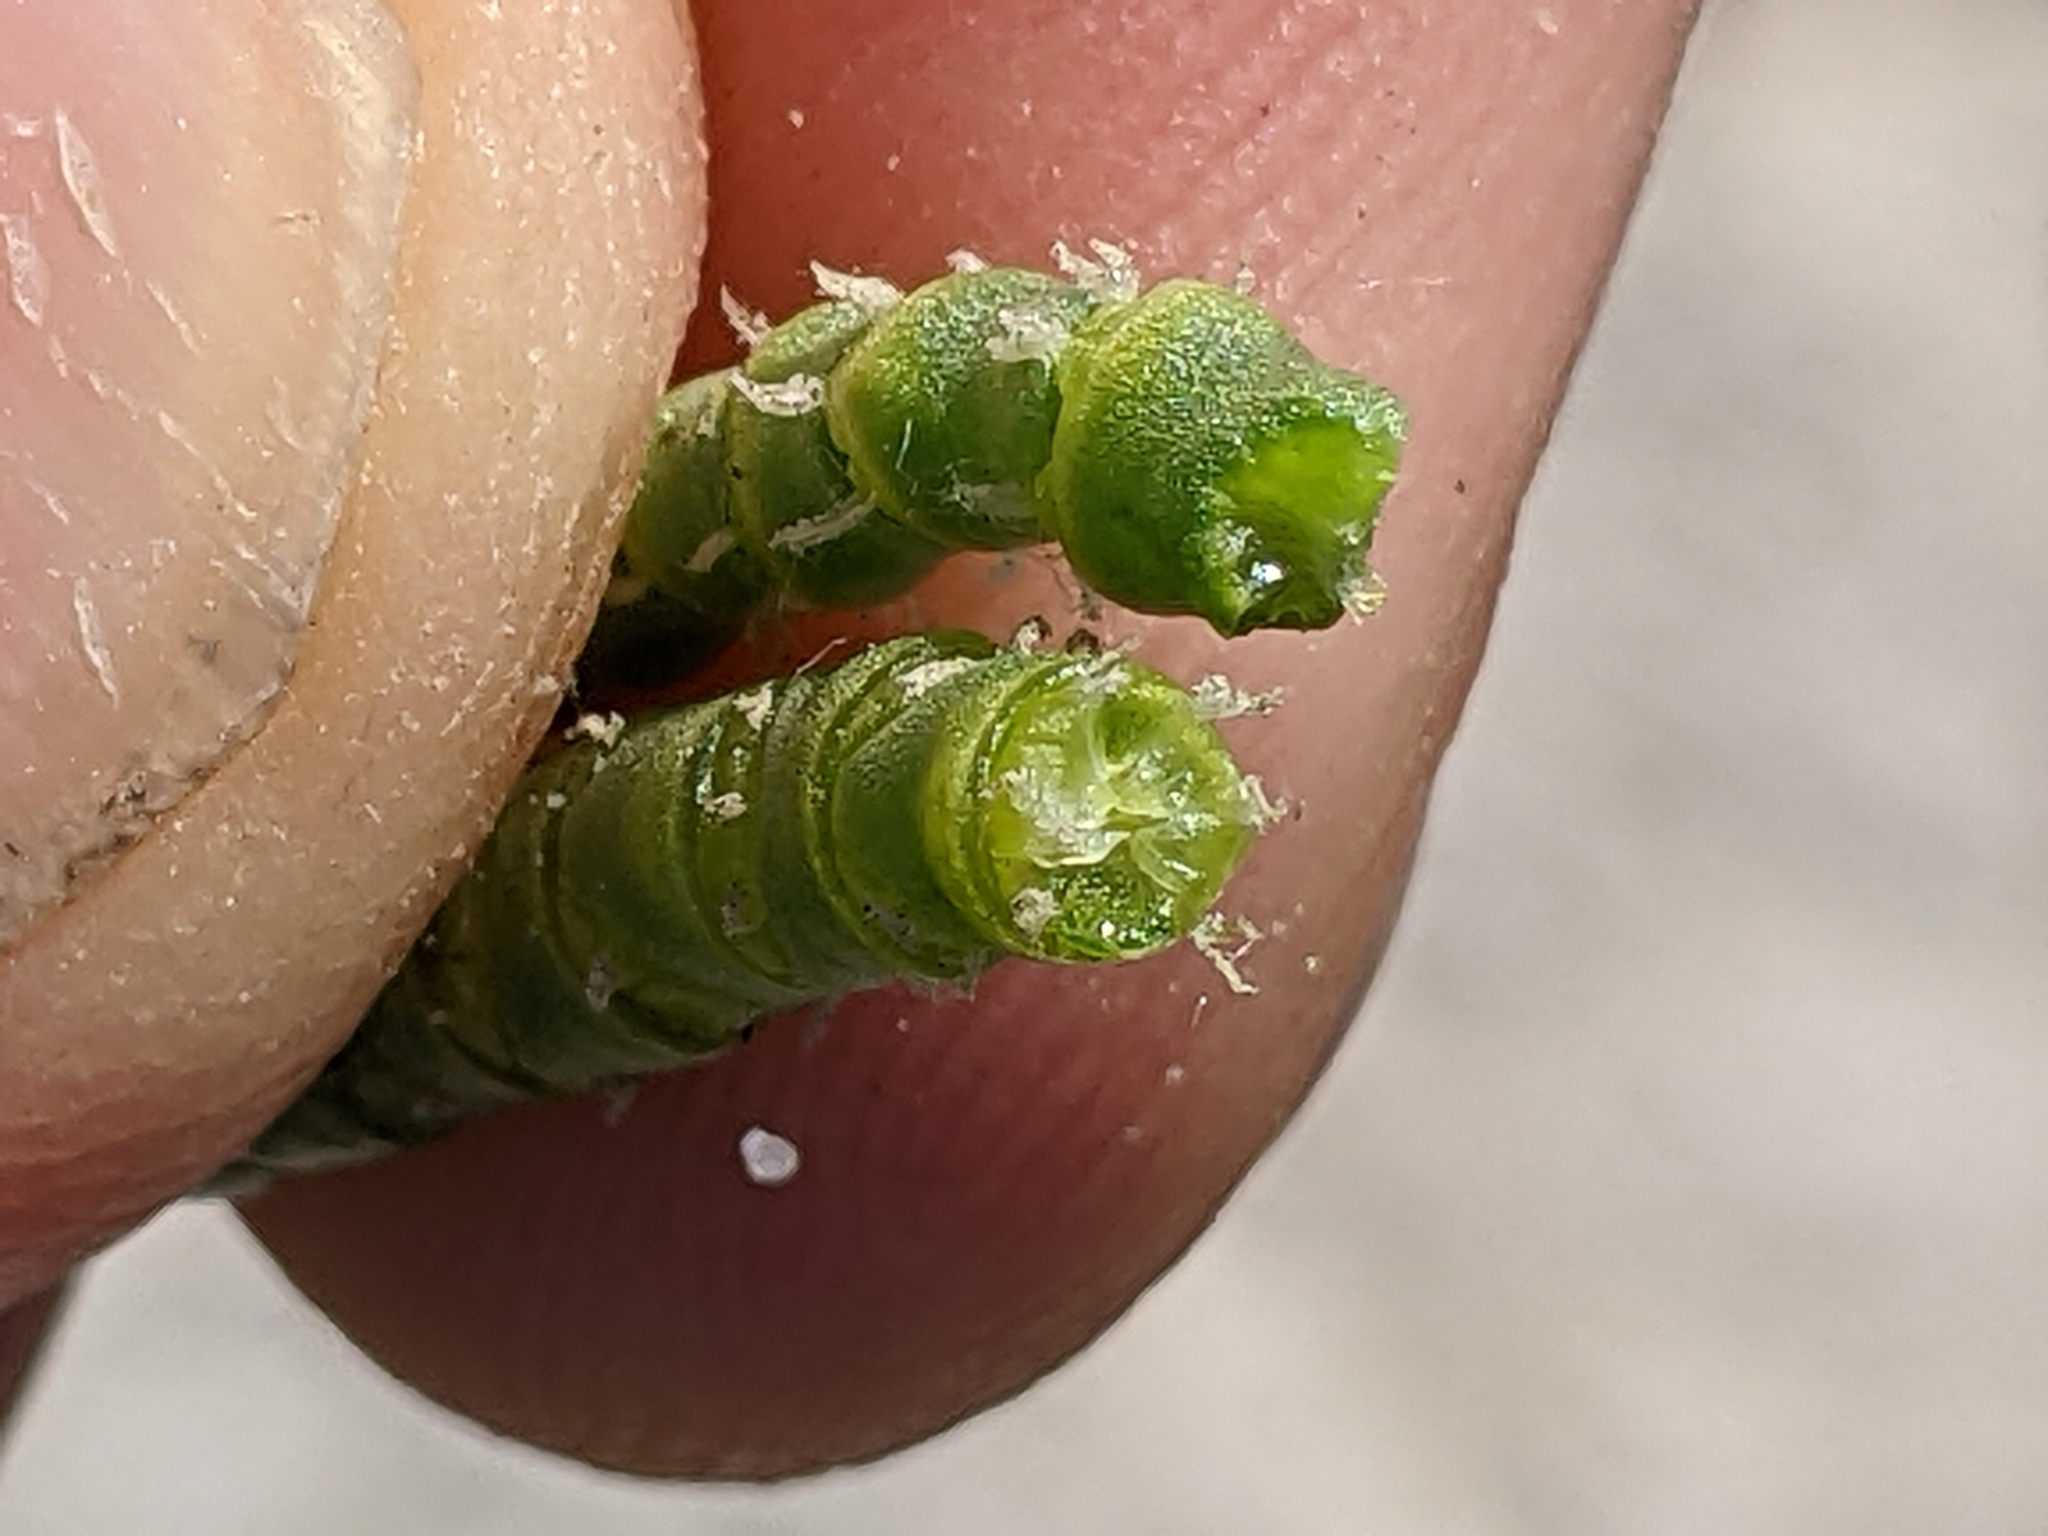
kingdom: Plantae
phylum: Tracheophyta
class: Magnoliopsida
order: Caryophyllales
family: Amaranthaceae
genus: Arthroceras
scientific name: Arthroceras subterminale
